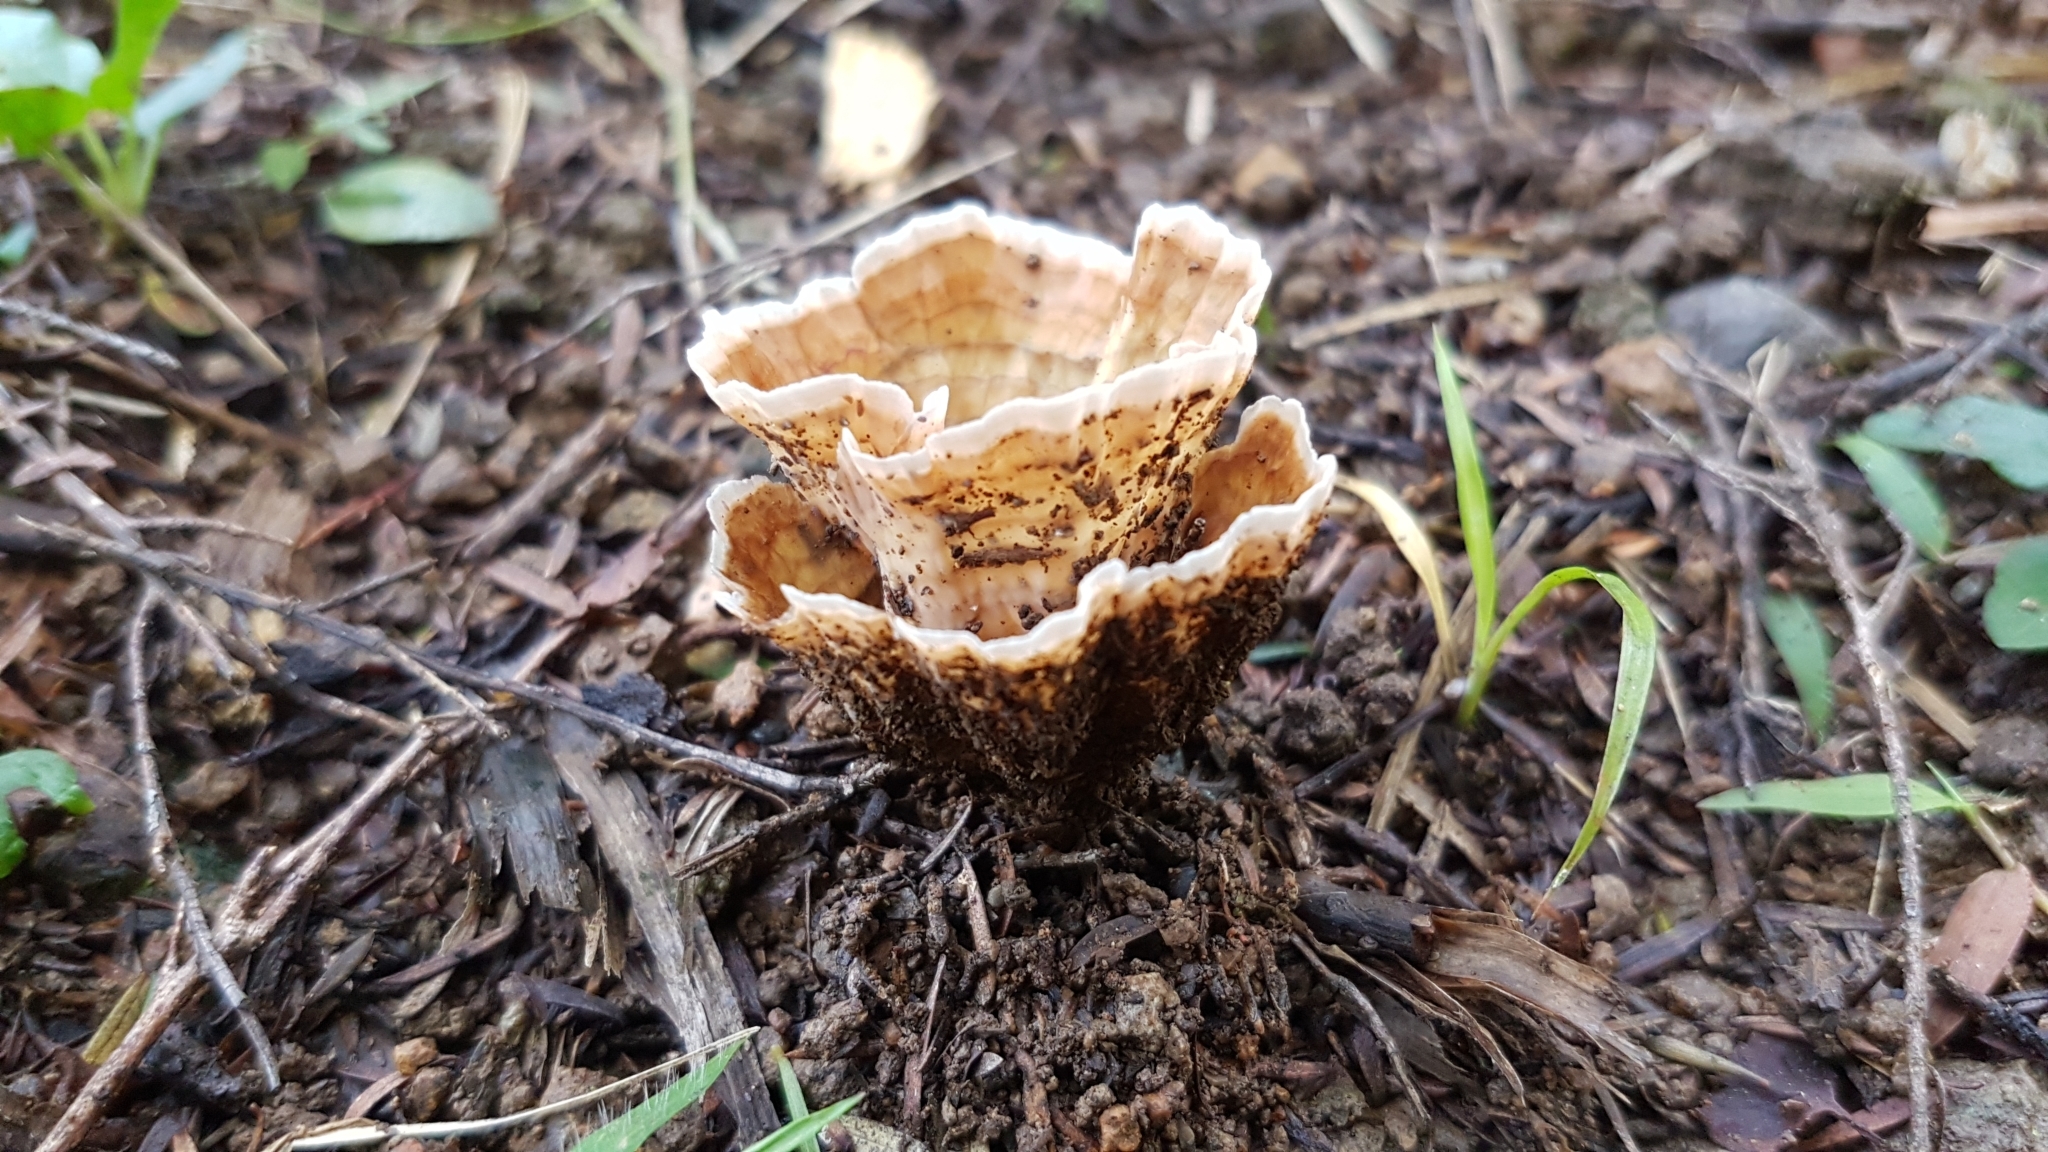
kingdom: Fungi
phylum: Basidiomycota
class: Agaricomycetes
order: Polyporales
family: Podoscyphaceae
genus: Podoscypha
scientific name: Podoscypha petalodes
